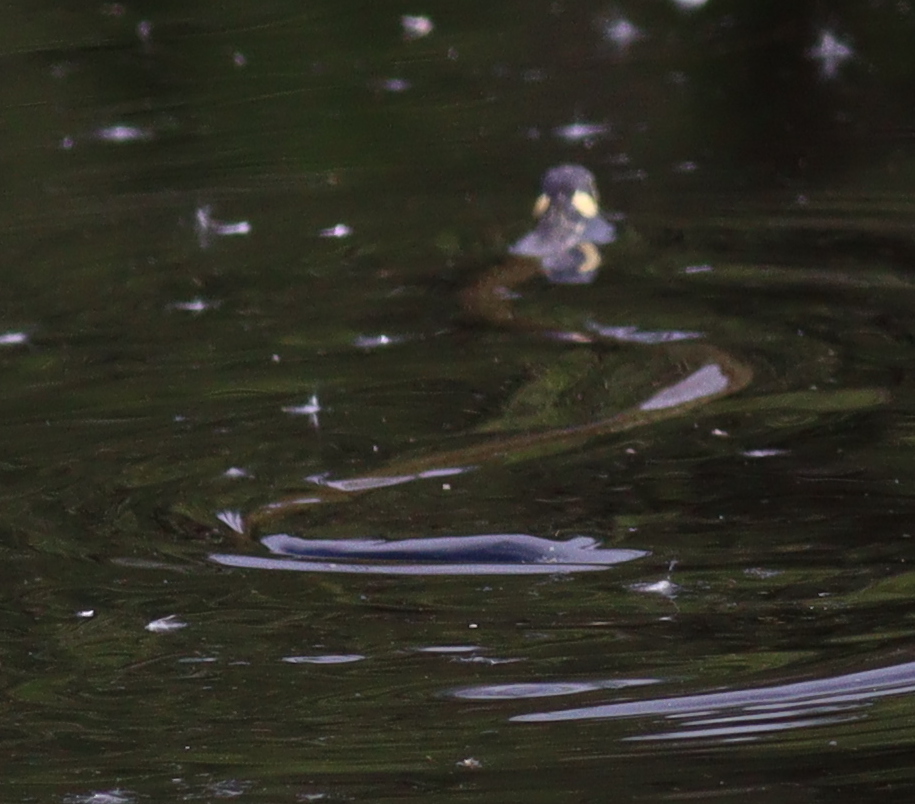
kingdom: Animalia
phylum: Chordata
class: Squamata
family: Colubridae
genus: Natrix
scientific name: Natrix natrix
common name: Grass snake
